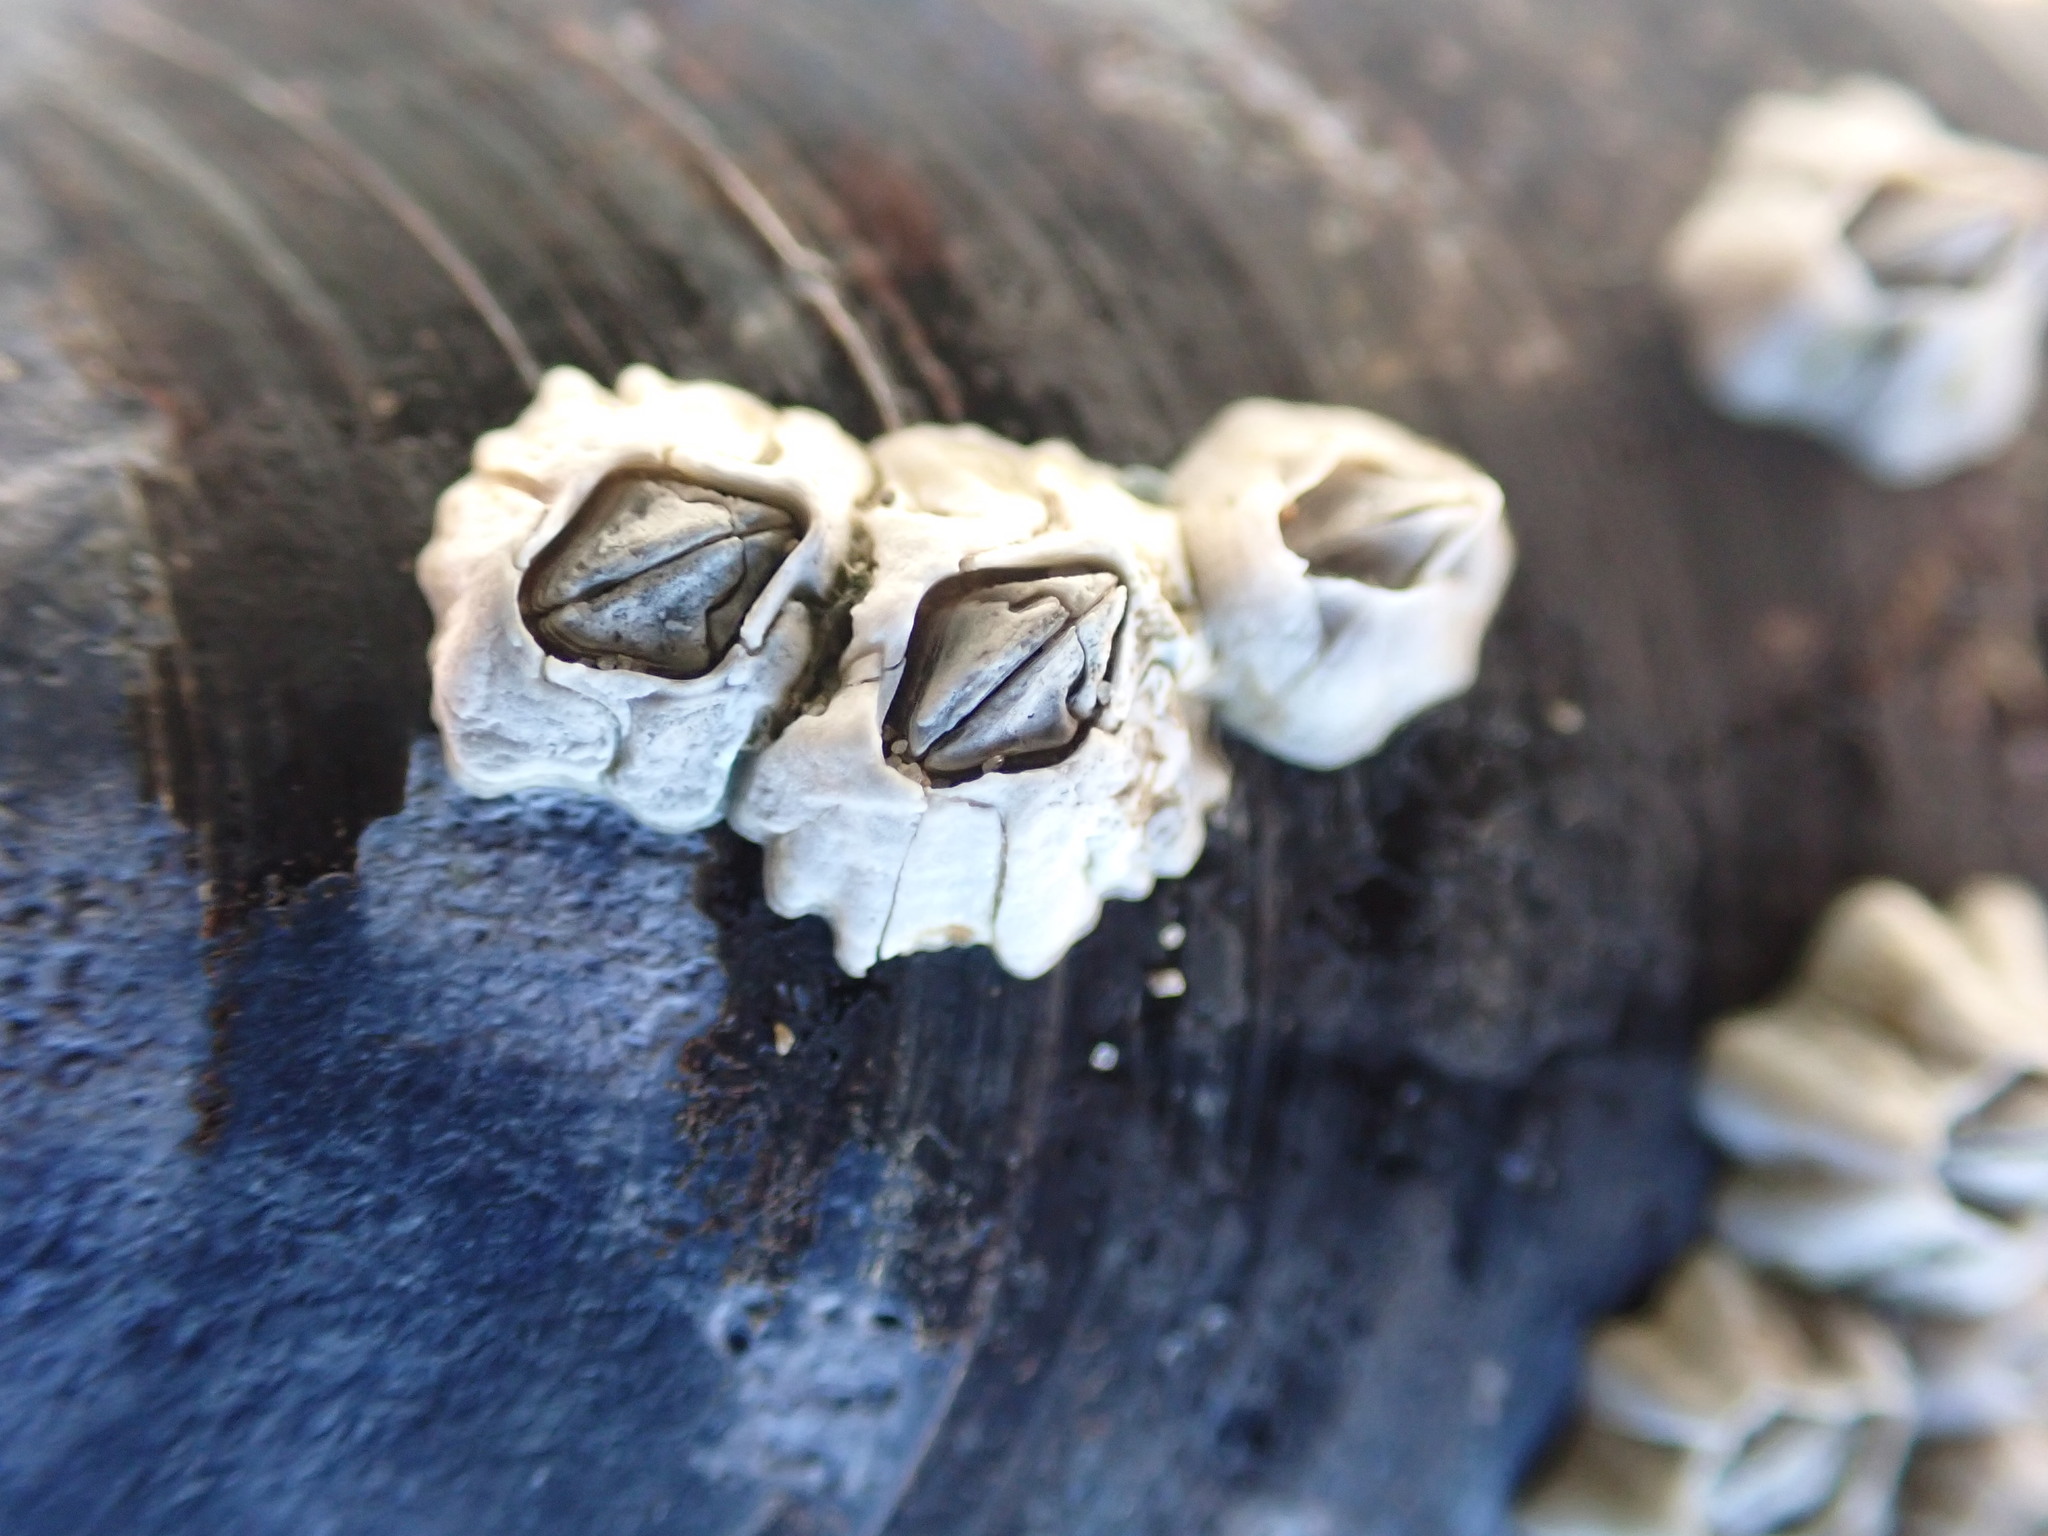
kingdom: Animalia
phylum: Arthropoda
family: Elminiidae
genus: Austrominius
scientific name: Austrominius modestus
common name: Australasian barnacle
